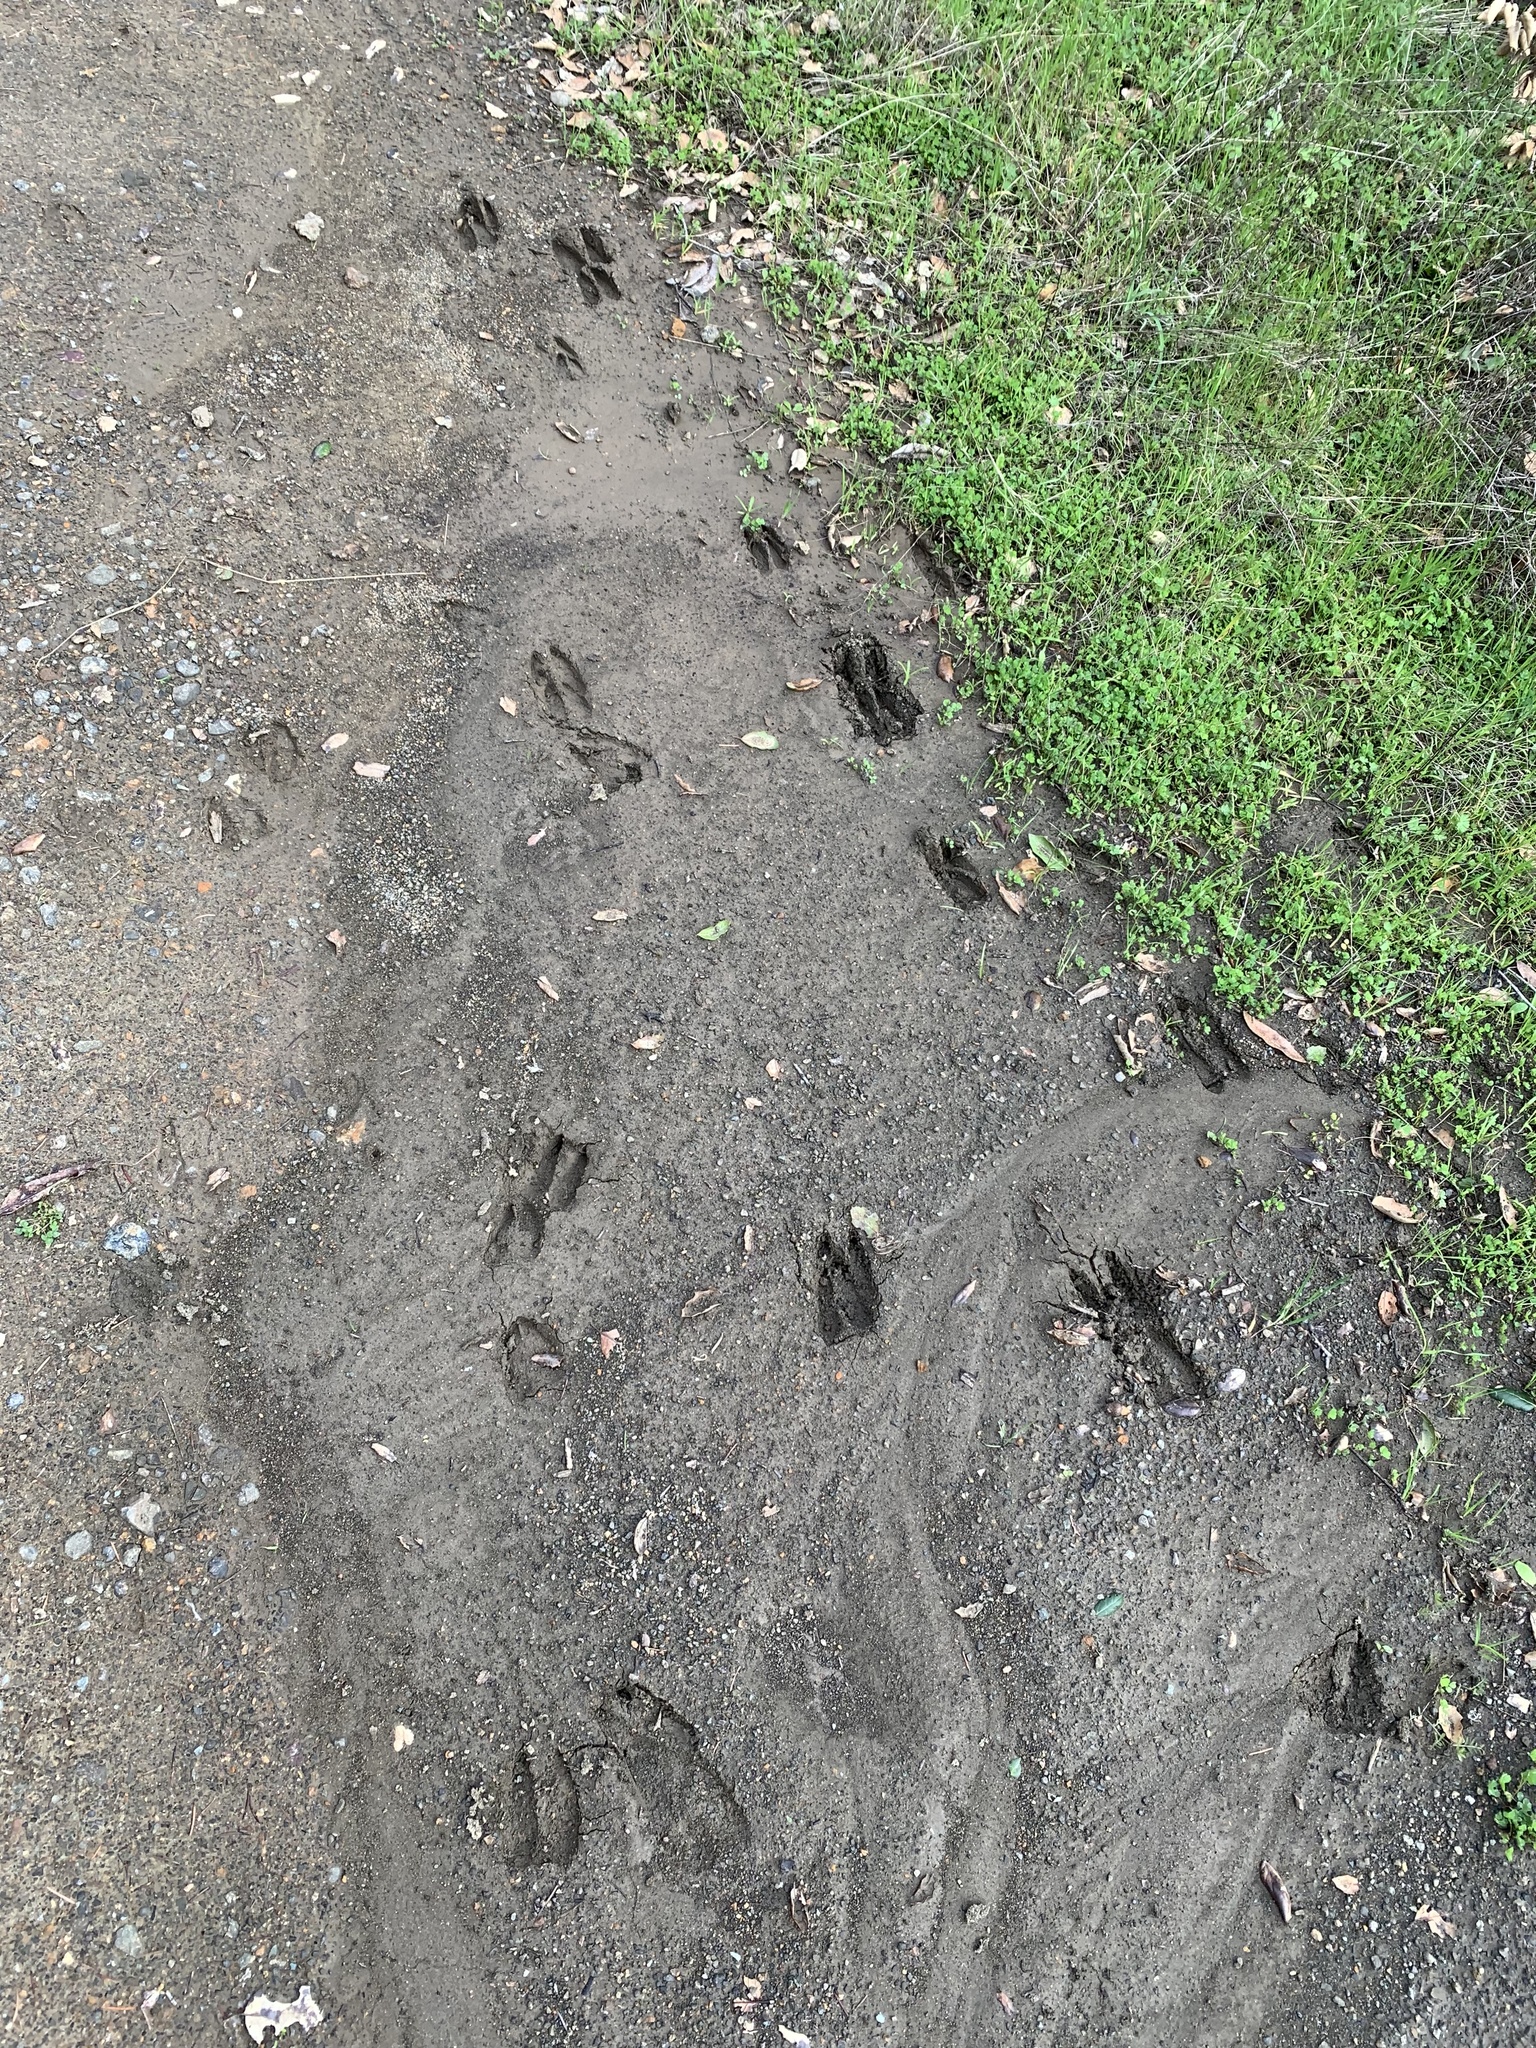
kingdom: Animalia
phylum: Chordata
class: Mammalia
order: Artiodactyla
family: Cervidae
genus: Odocoileus
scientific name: Odocoileus hemionus
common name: Mule deer
